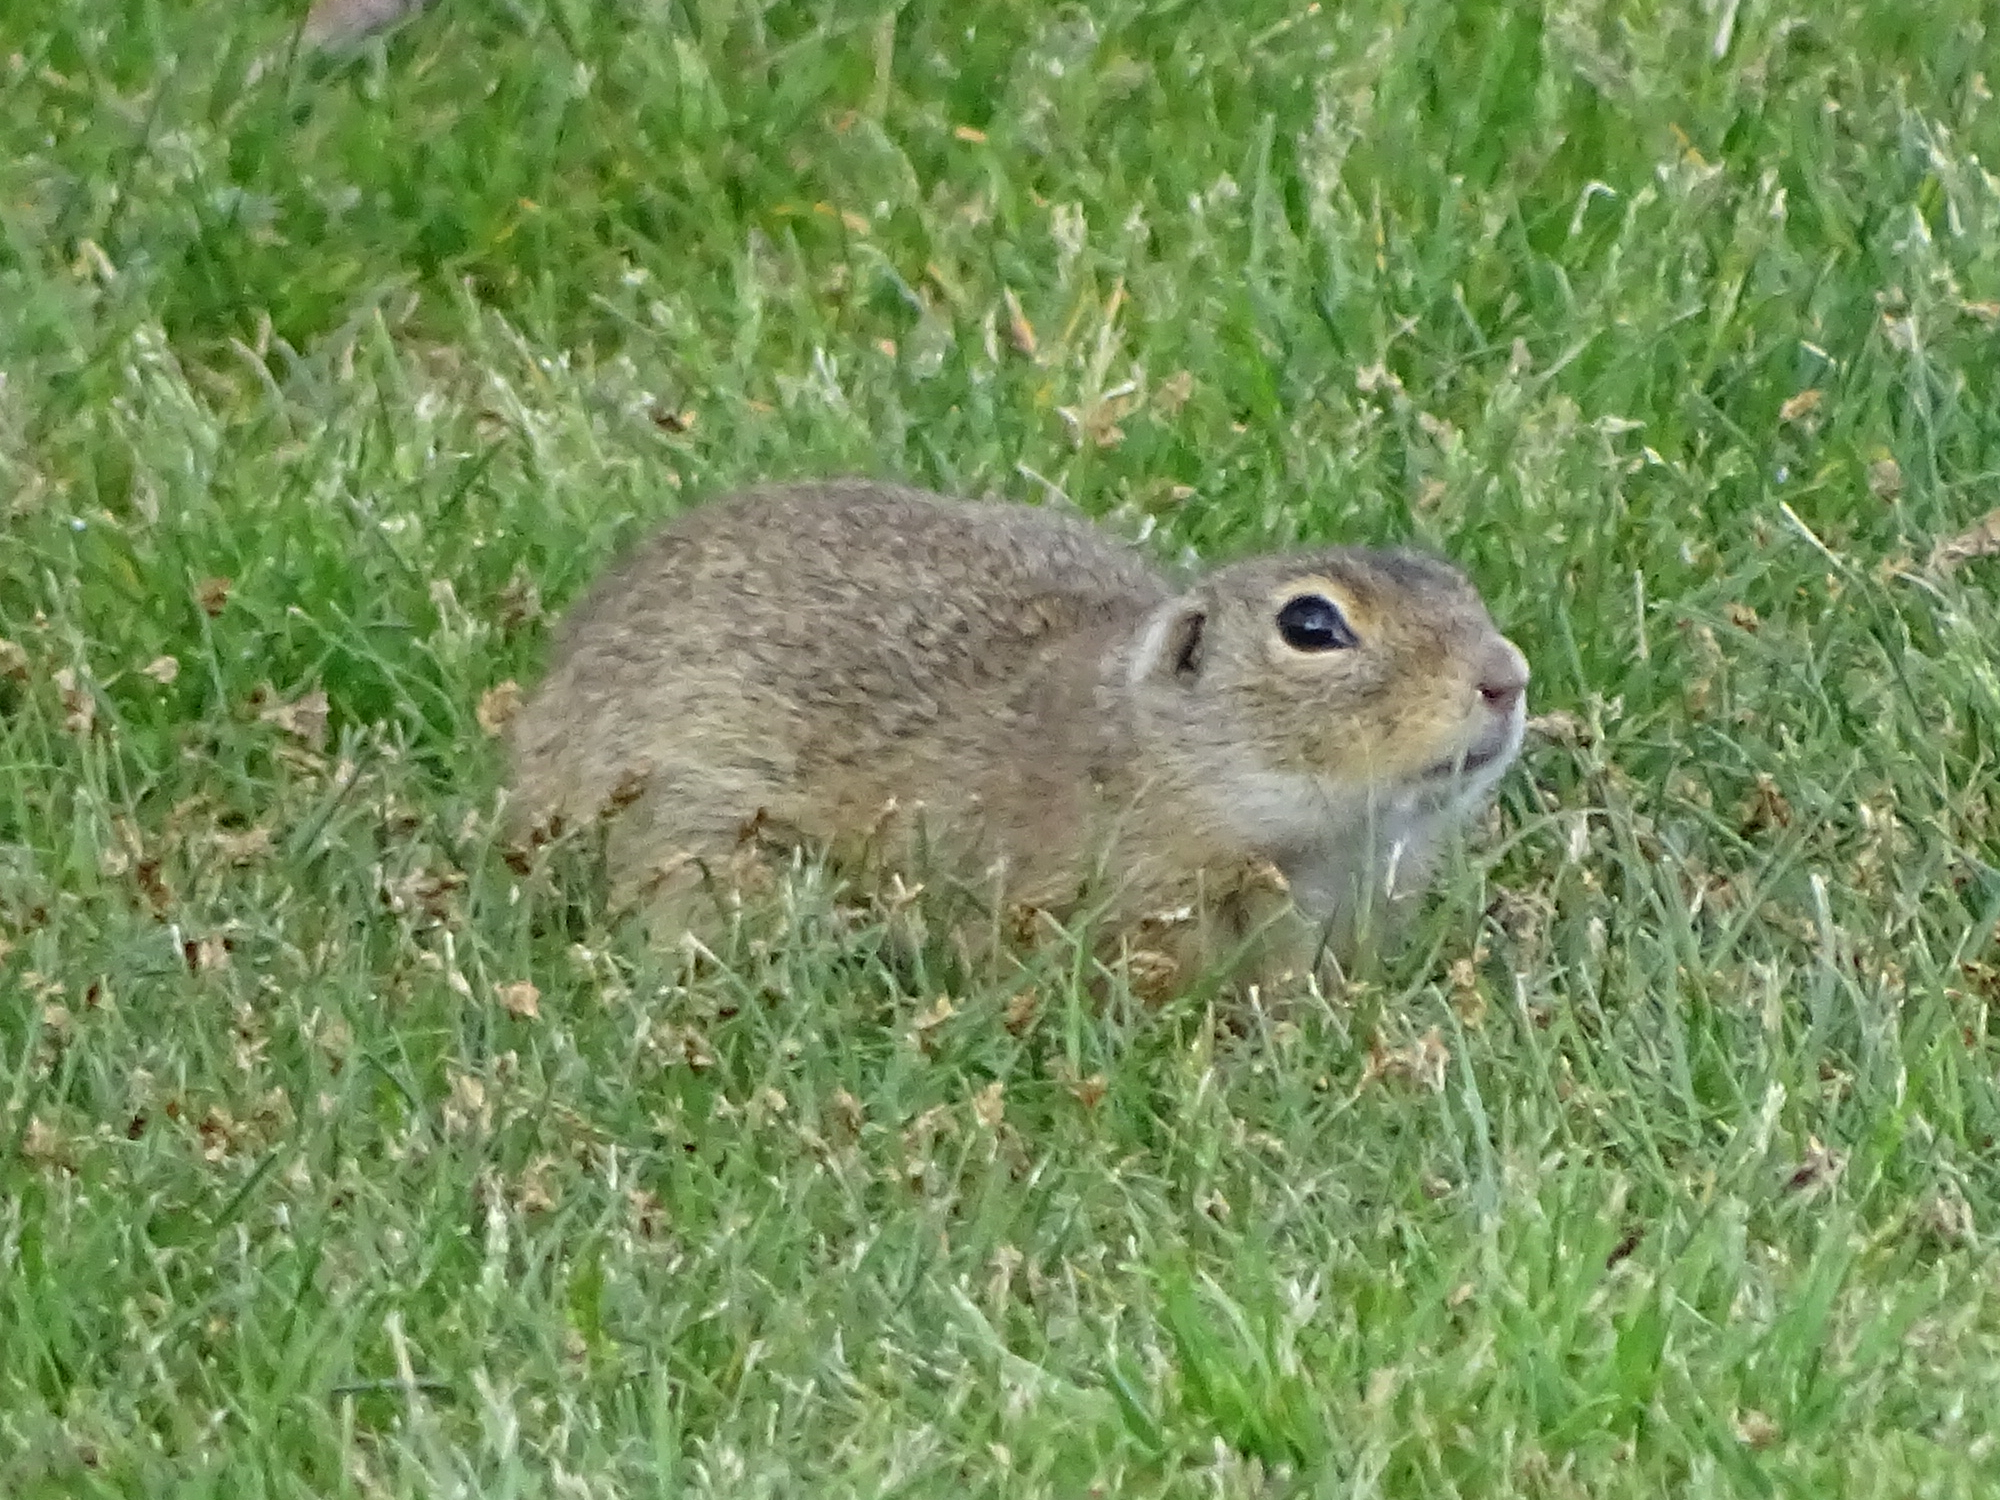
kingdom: Animalia
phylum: Chordata
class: Mammalia
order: Rodentia
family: Sciuridae
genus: Spermophilus
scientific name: Spermophilus citellus
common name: European ground squirrel
